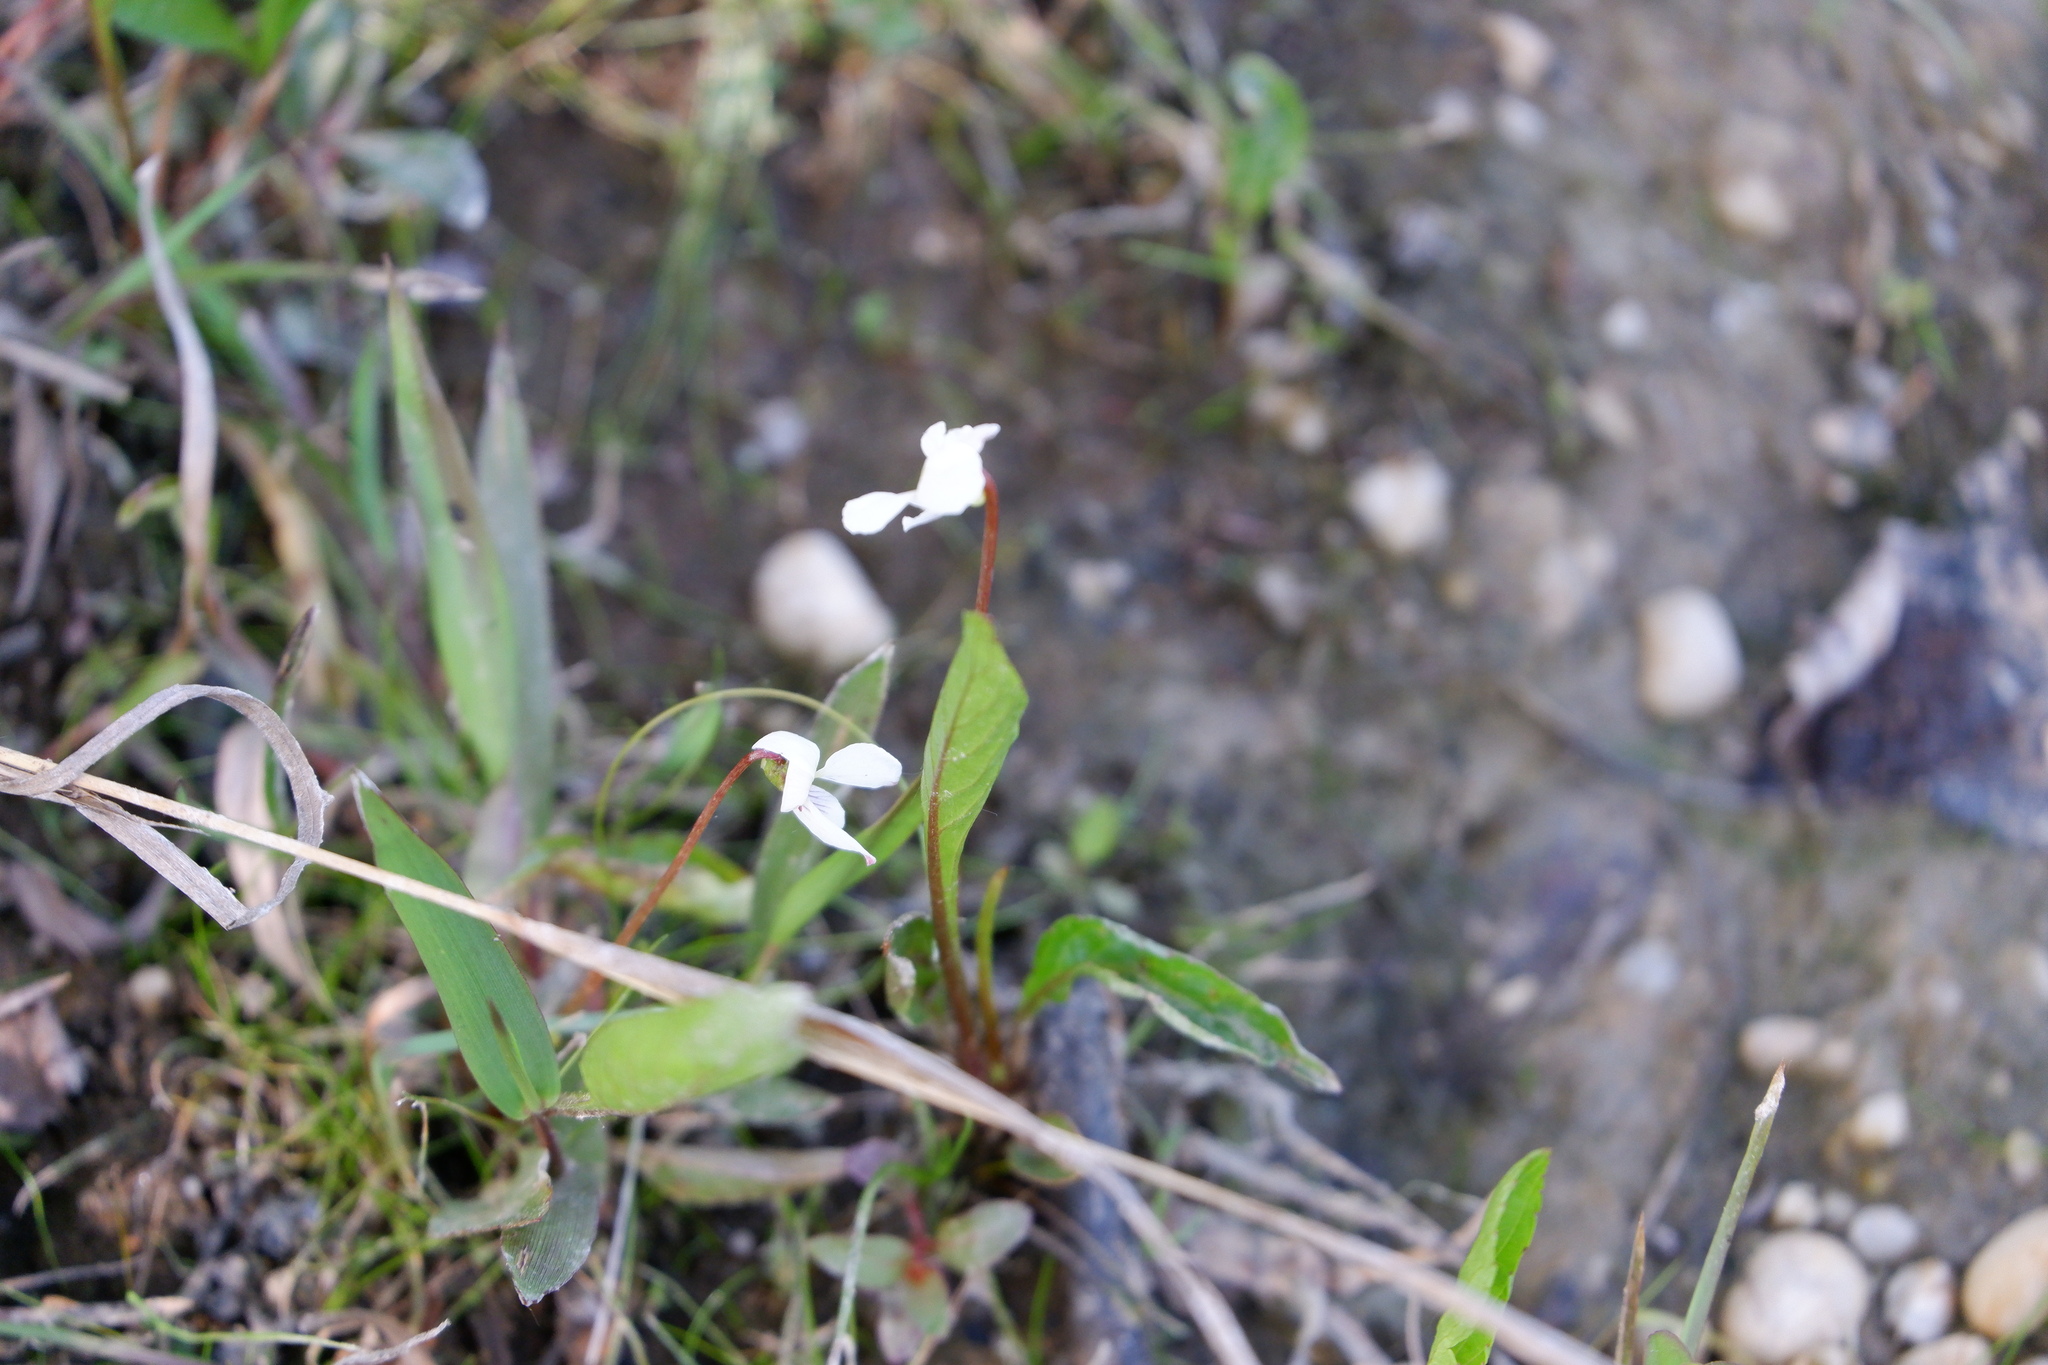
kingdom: Plantae
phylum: Tracheophyta
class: Magnoliopsida
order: Malpighiales
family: Violaceae
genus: Viola
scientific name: Viola lanceolata
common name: Bog white violet
